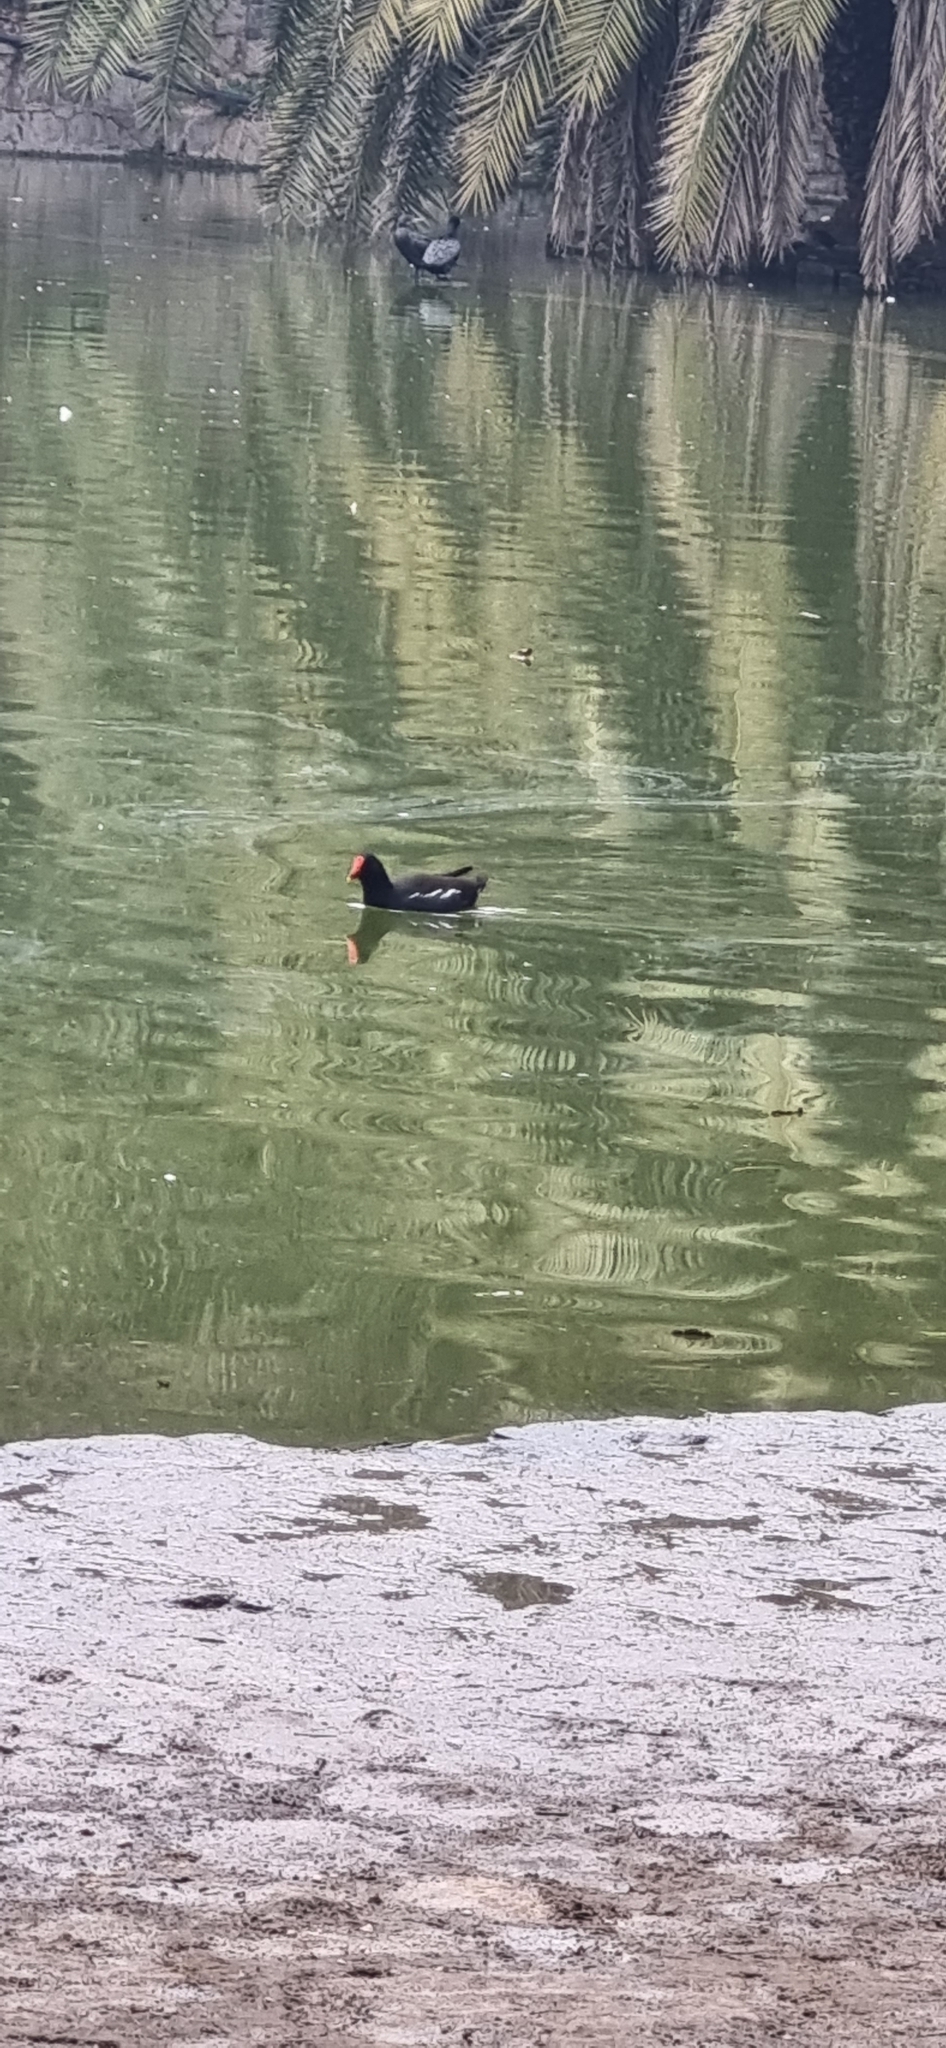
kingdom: Animalia
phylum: Chordata
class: Aves
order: Gruiformes
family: Rallidae
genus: Gallinula
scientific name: Gallinula chloropus
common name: Common moorhen
